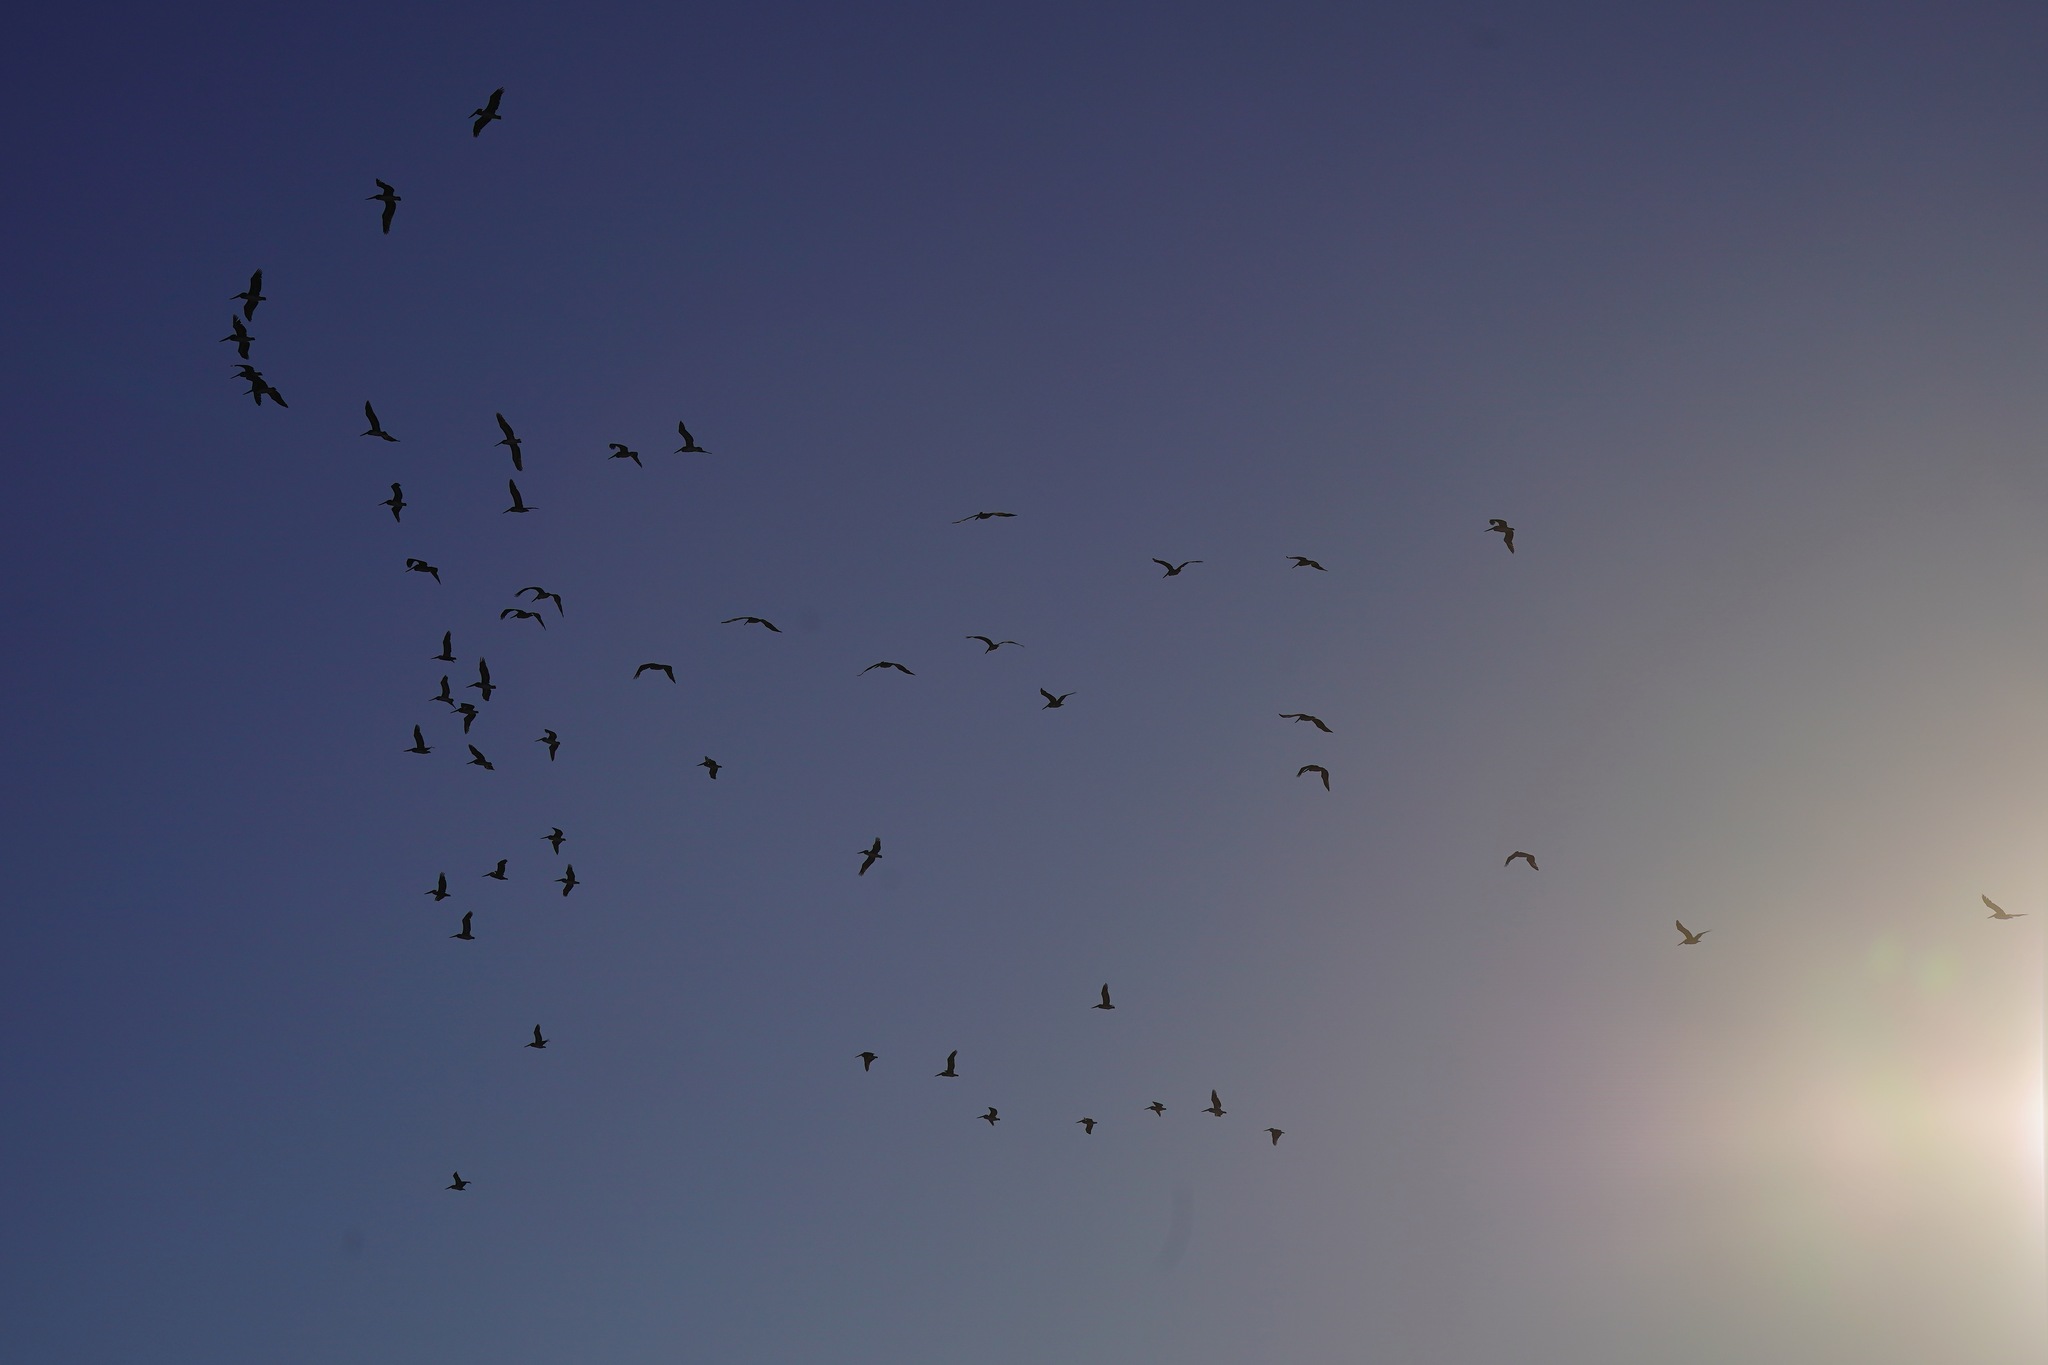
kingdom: Animalia
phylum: Chordata
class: Aves
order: Pelecaniformes
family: Pelecanidae
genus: Pelecanus
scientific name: Pelecanus occidentalis
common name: Brown pelican
